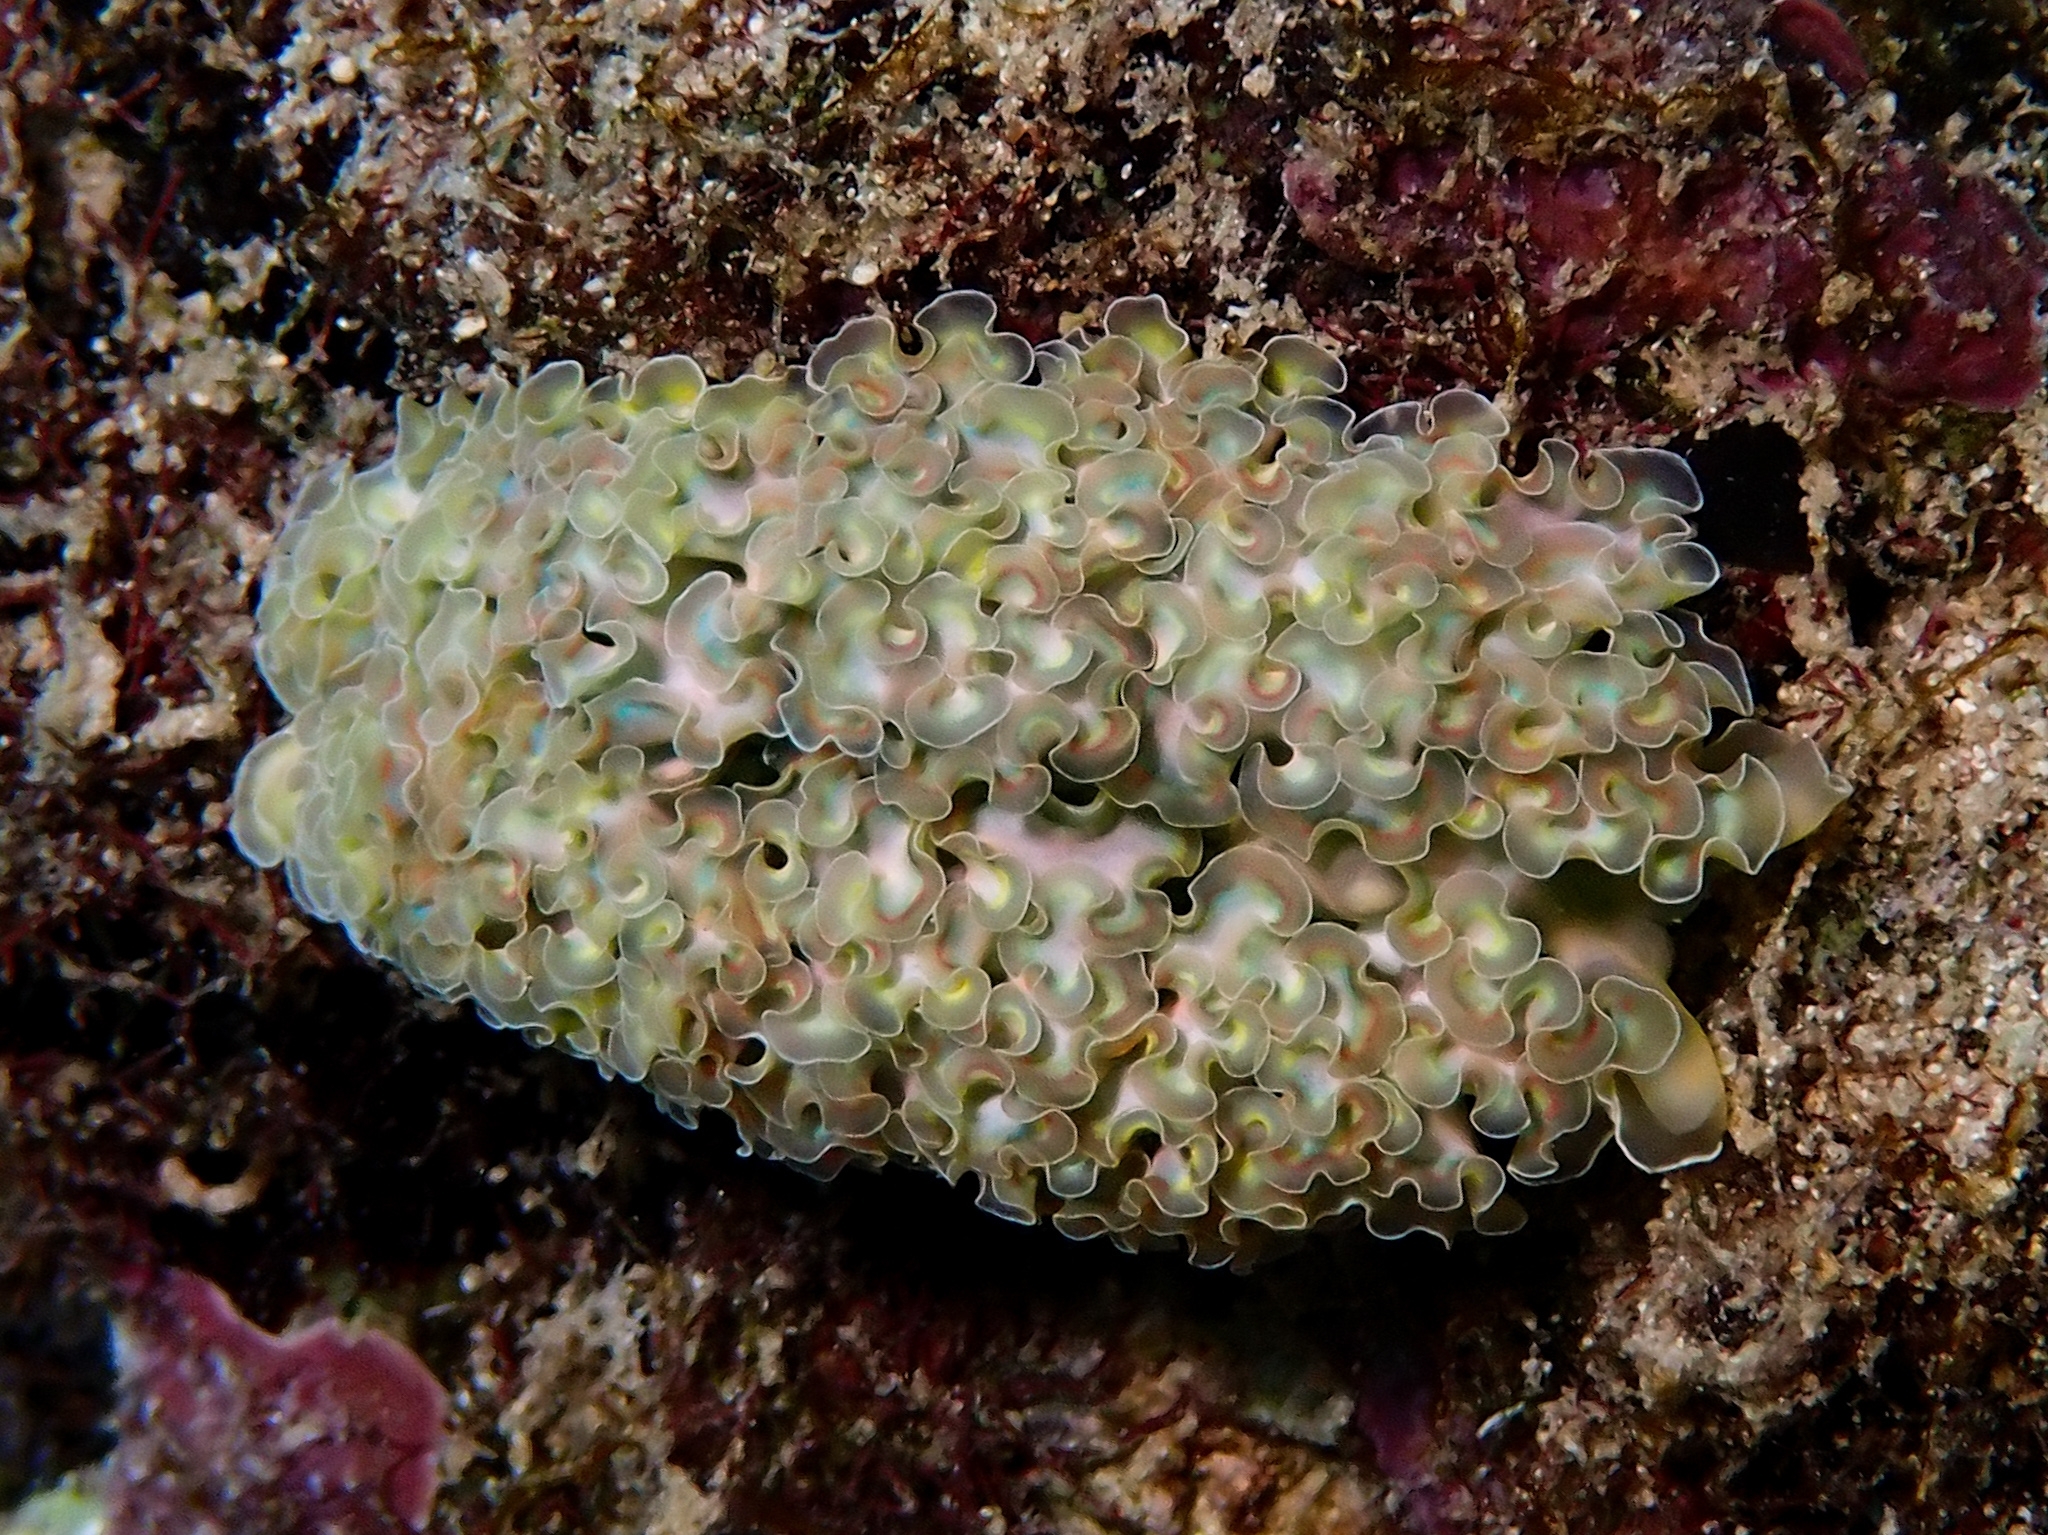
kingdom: Animalia
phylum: Mollusca
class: Gastropoda
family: Plakobranchidae
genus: Elysia
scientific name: Elysia crispata
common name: Lettuce slug
